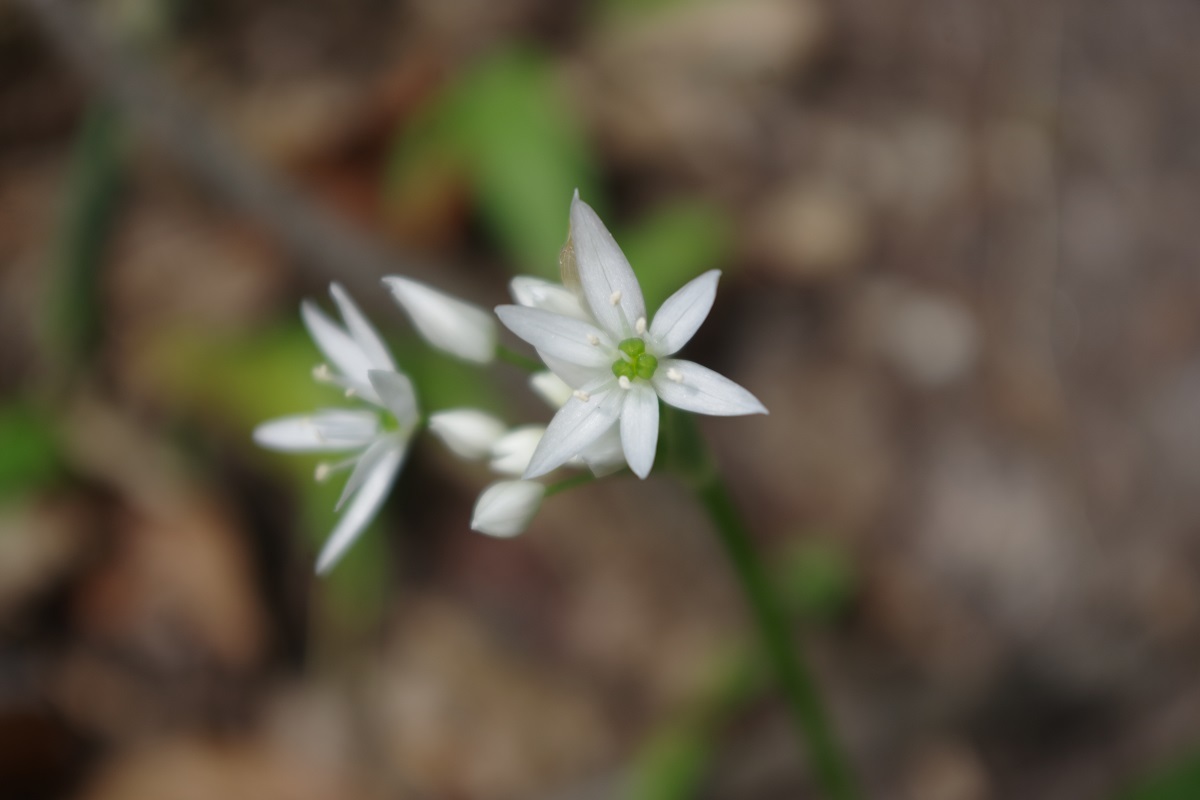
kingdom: Plantae
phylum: Tracheophyta
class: Liliopsida
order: Asparagales
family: Amaryllidaceae
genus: Allium
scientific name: Allium ursinum
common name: Ramsons
